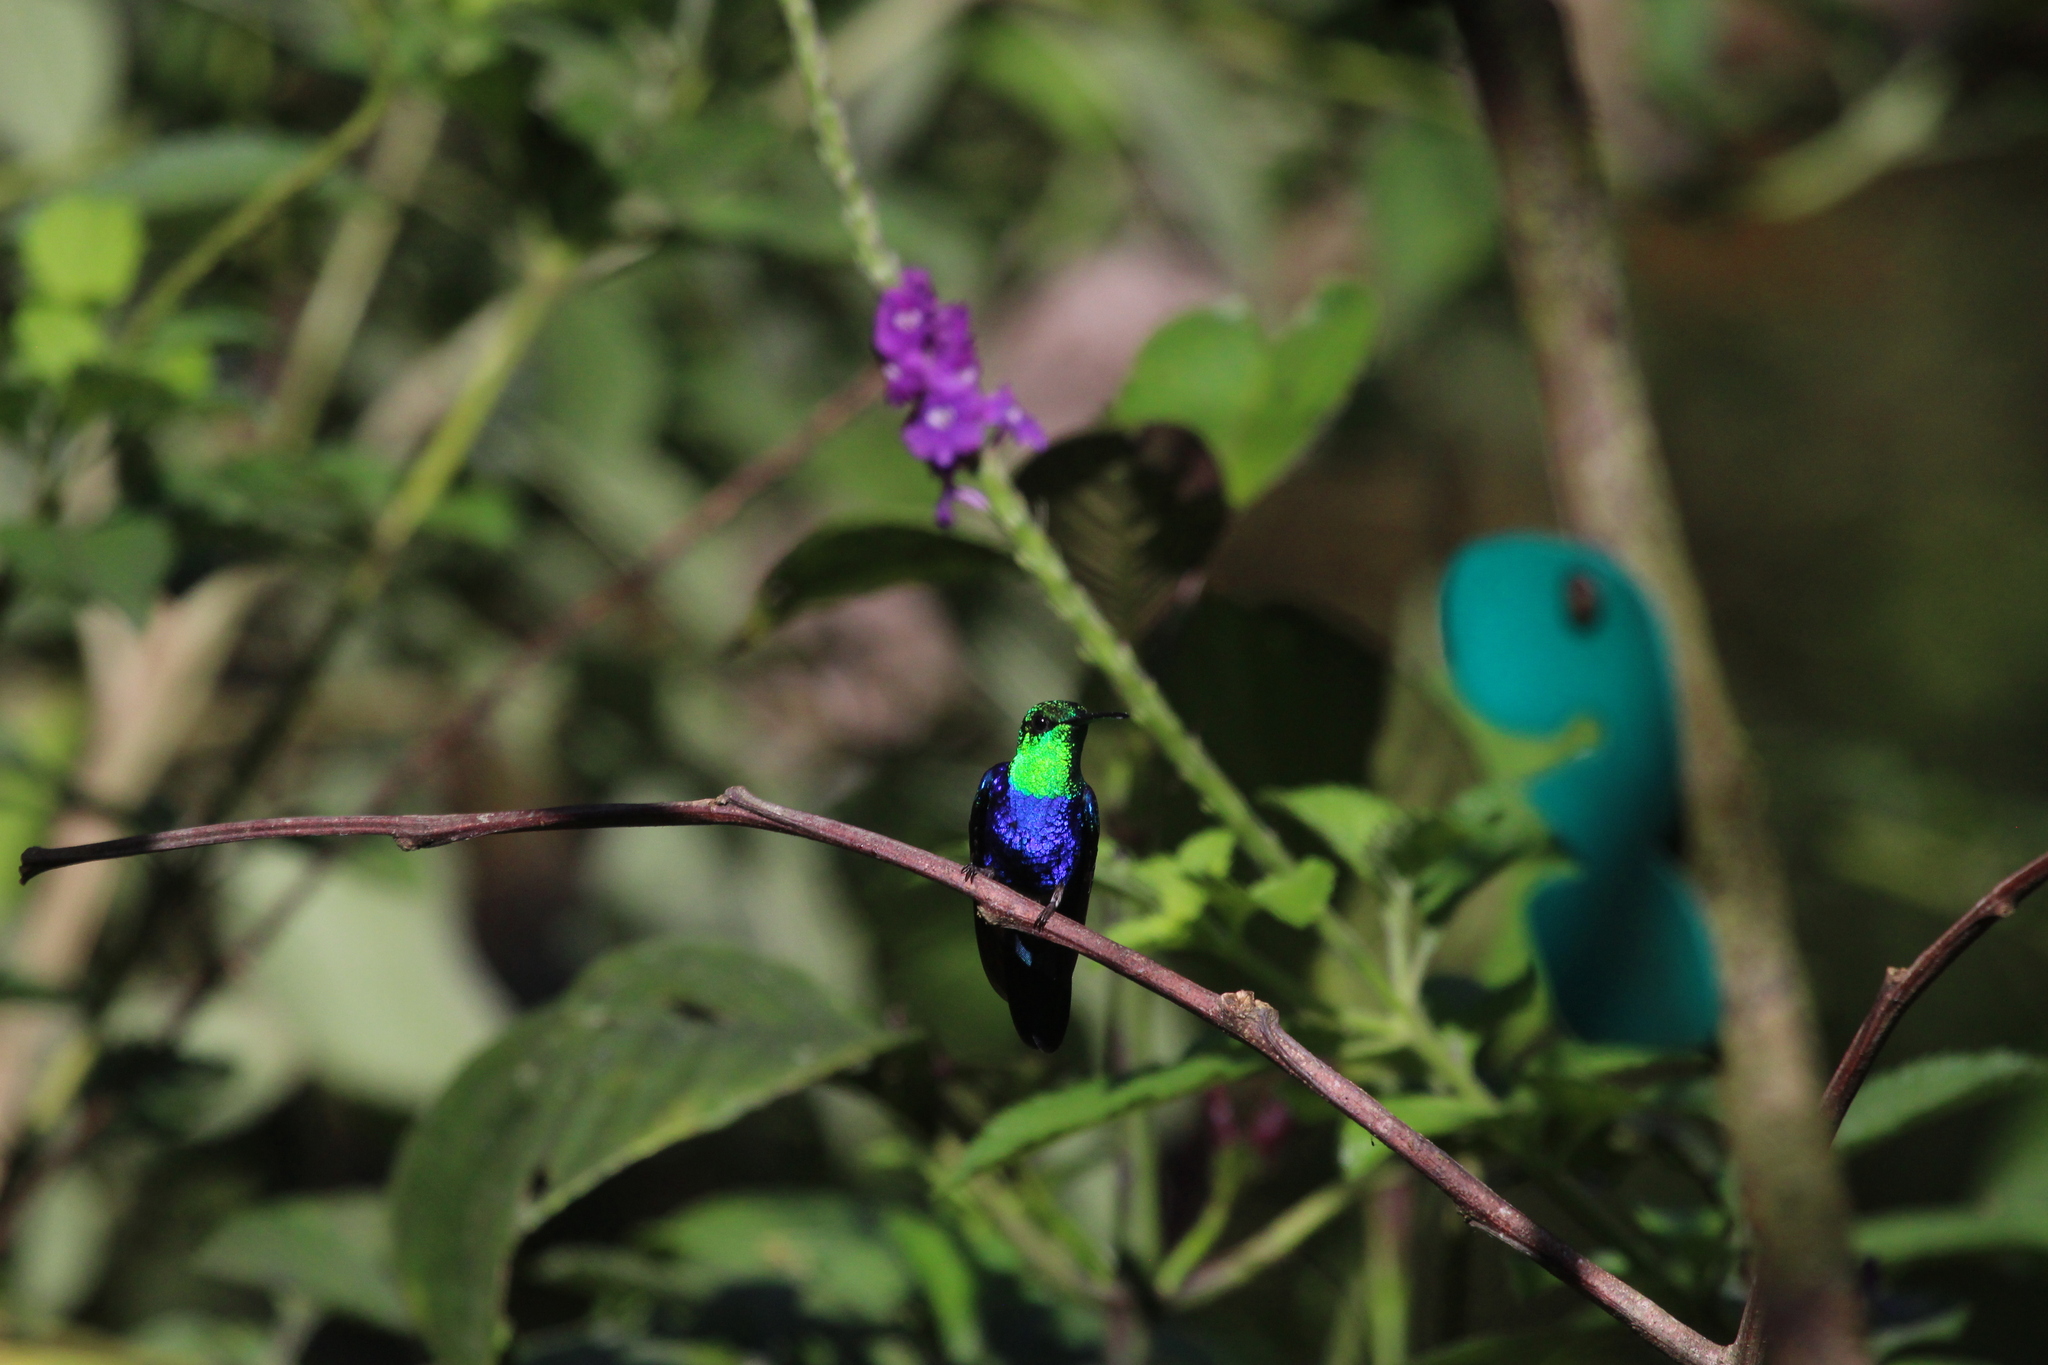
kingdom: Animalia
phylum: Chordata
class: Aves
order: Apodiformes
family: Trochilidae
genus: Thalurania
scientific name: Thalurania furcata
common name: Fork-tailed woodnymph
